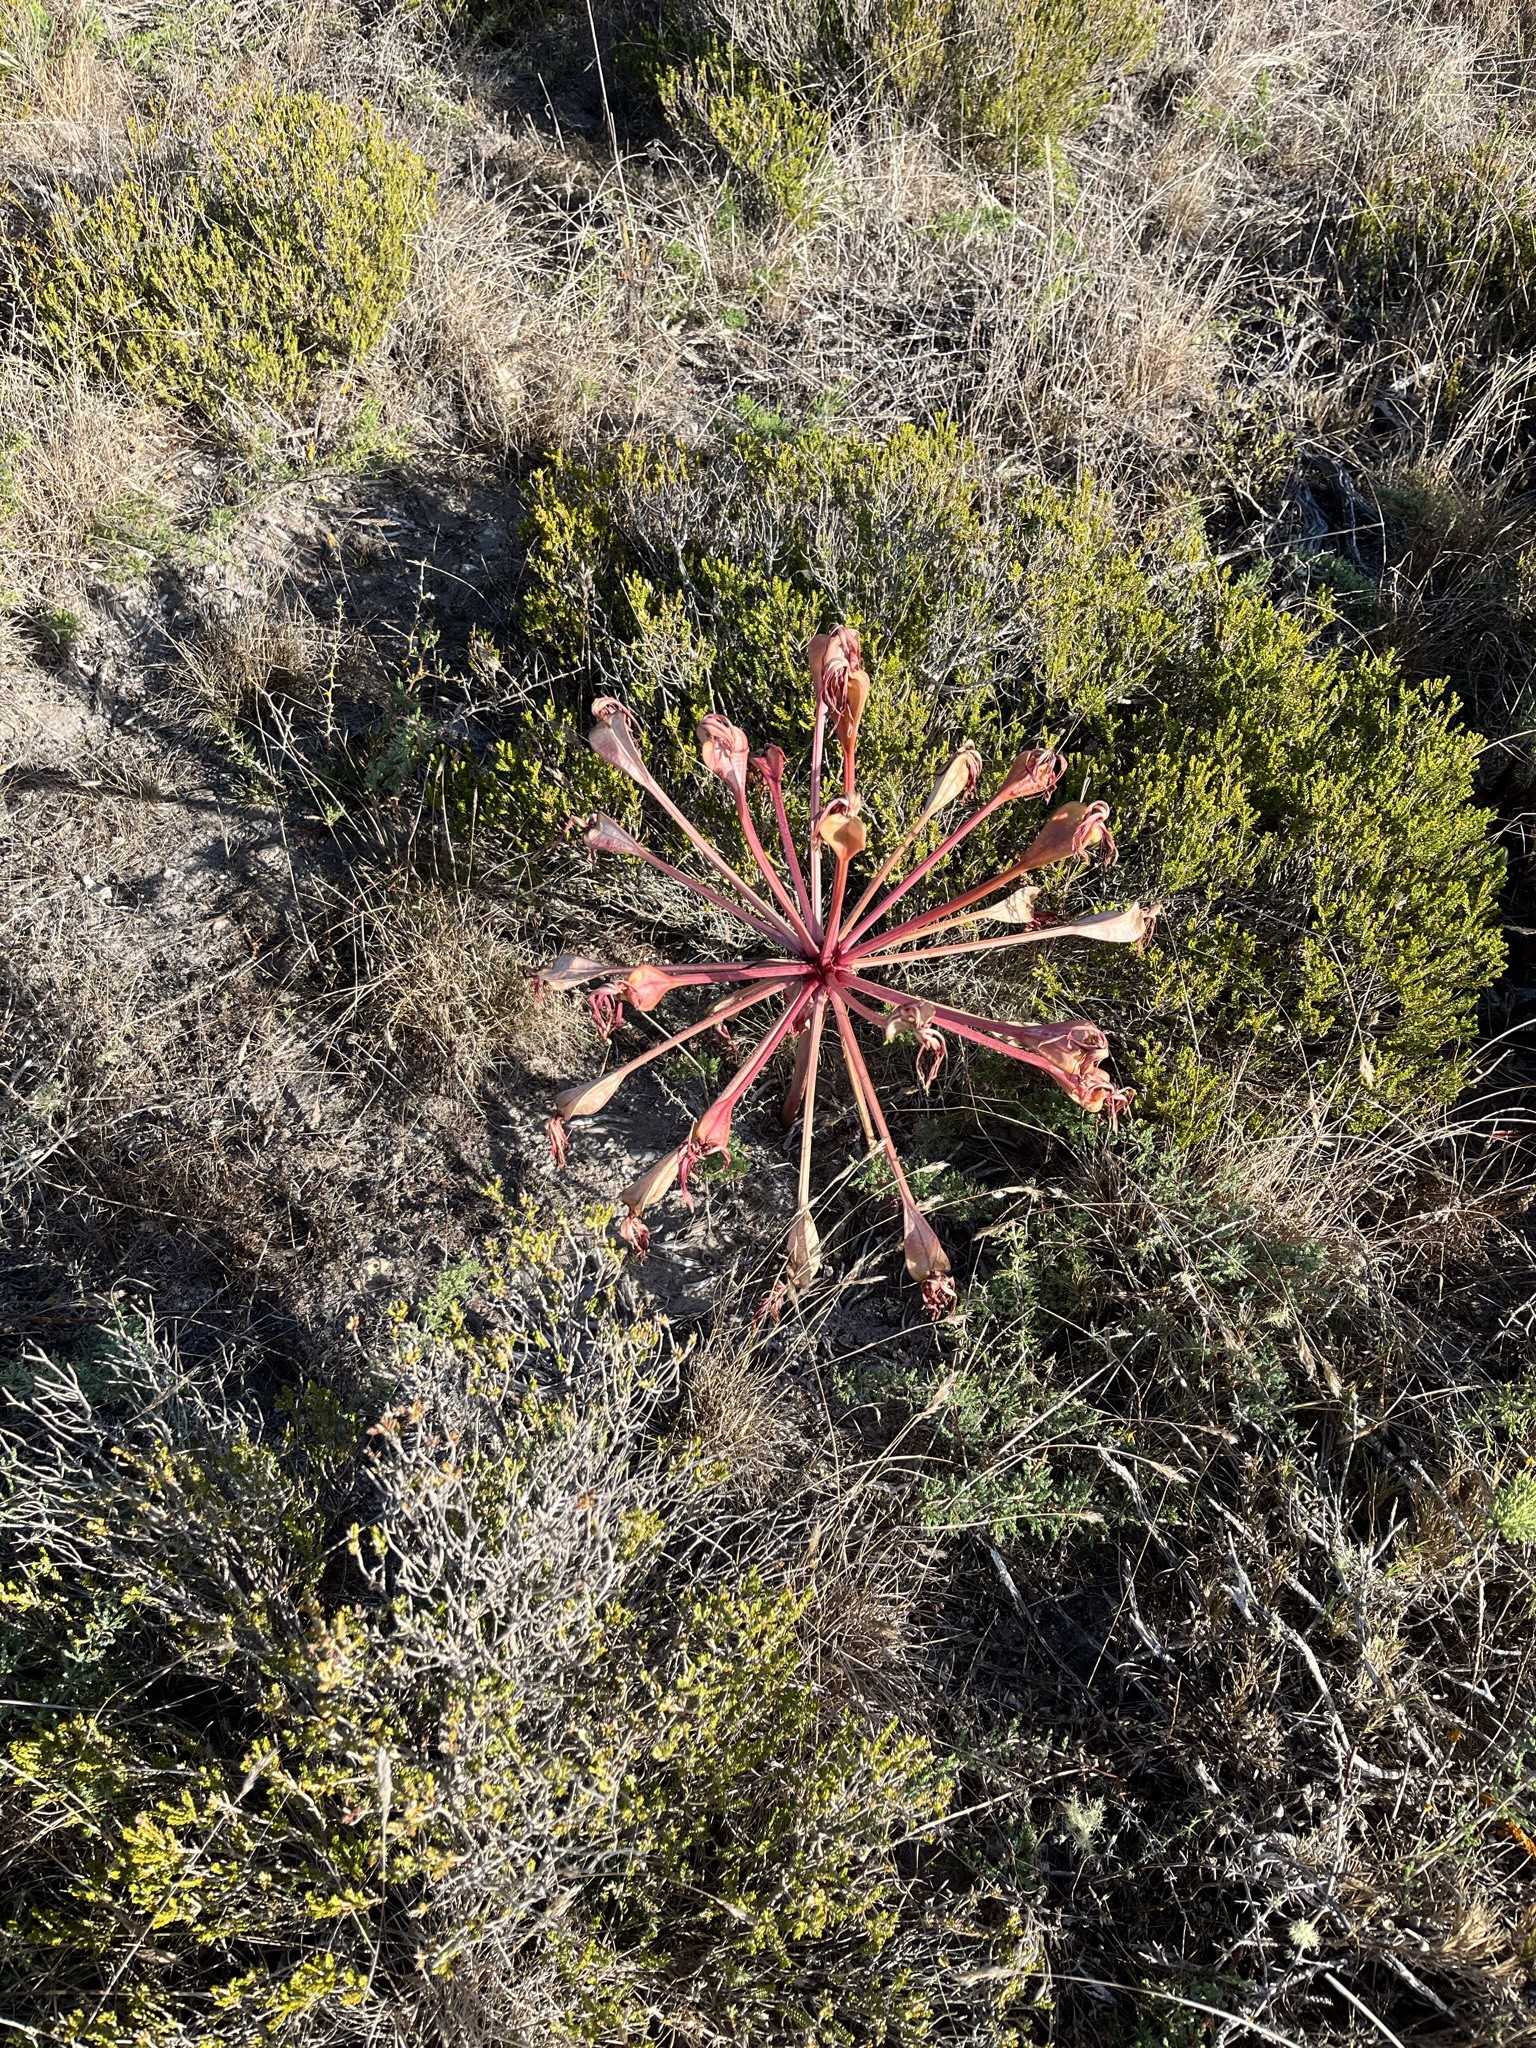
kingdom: Plantae
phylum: Tracheophyta
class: Liliopsida
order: Asparagales
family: Amaryllidaceae
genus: Brunsvigia
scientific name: Brunsvigia orientalis
